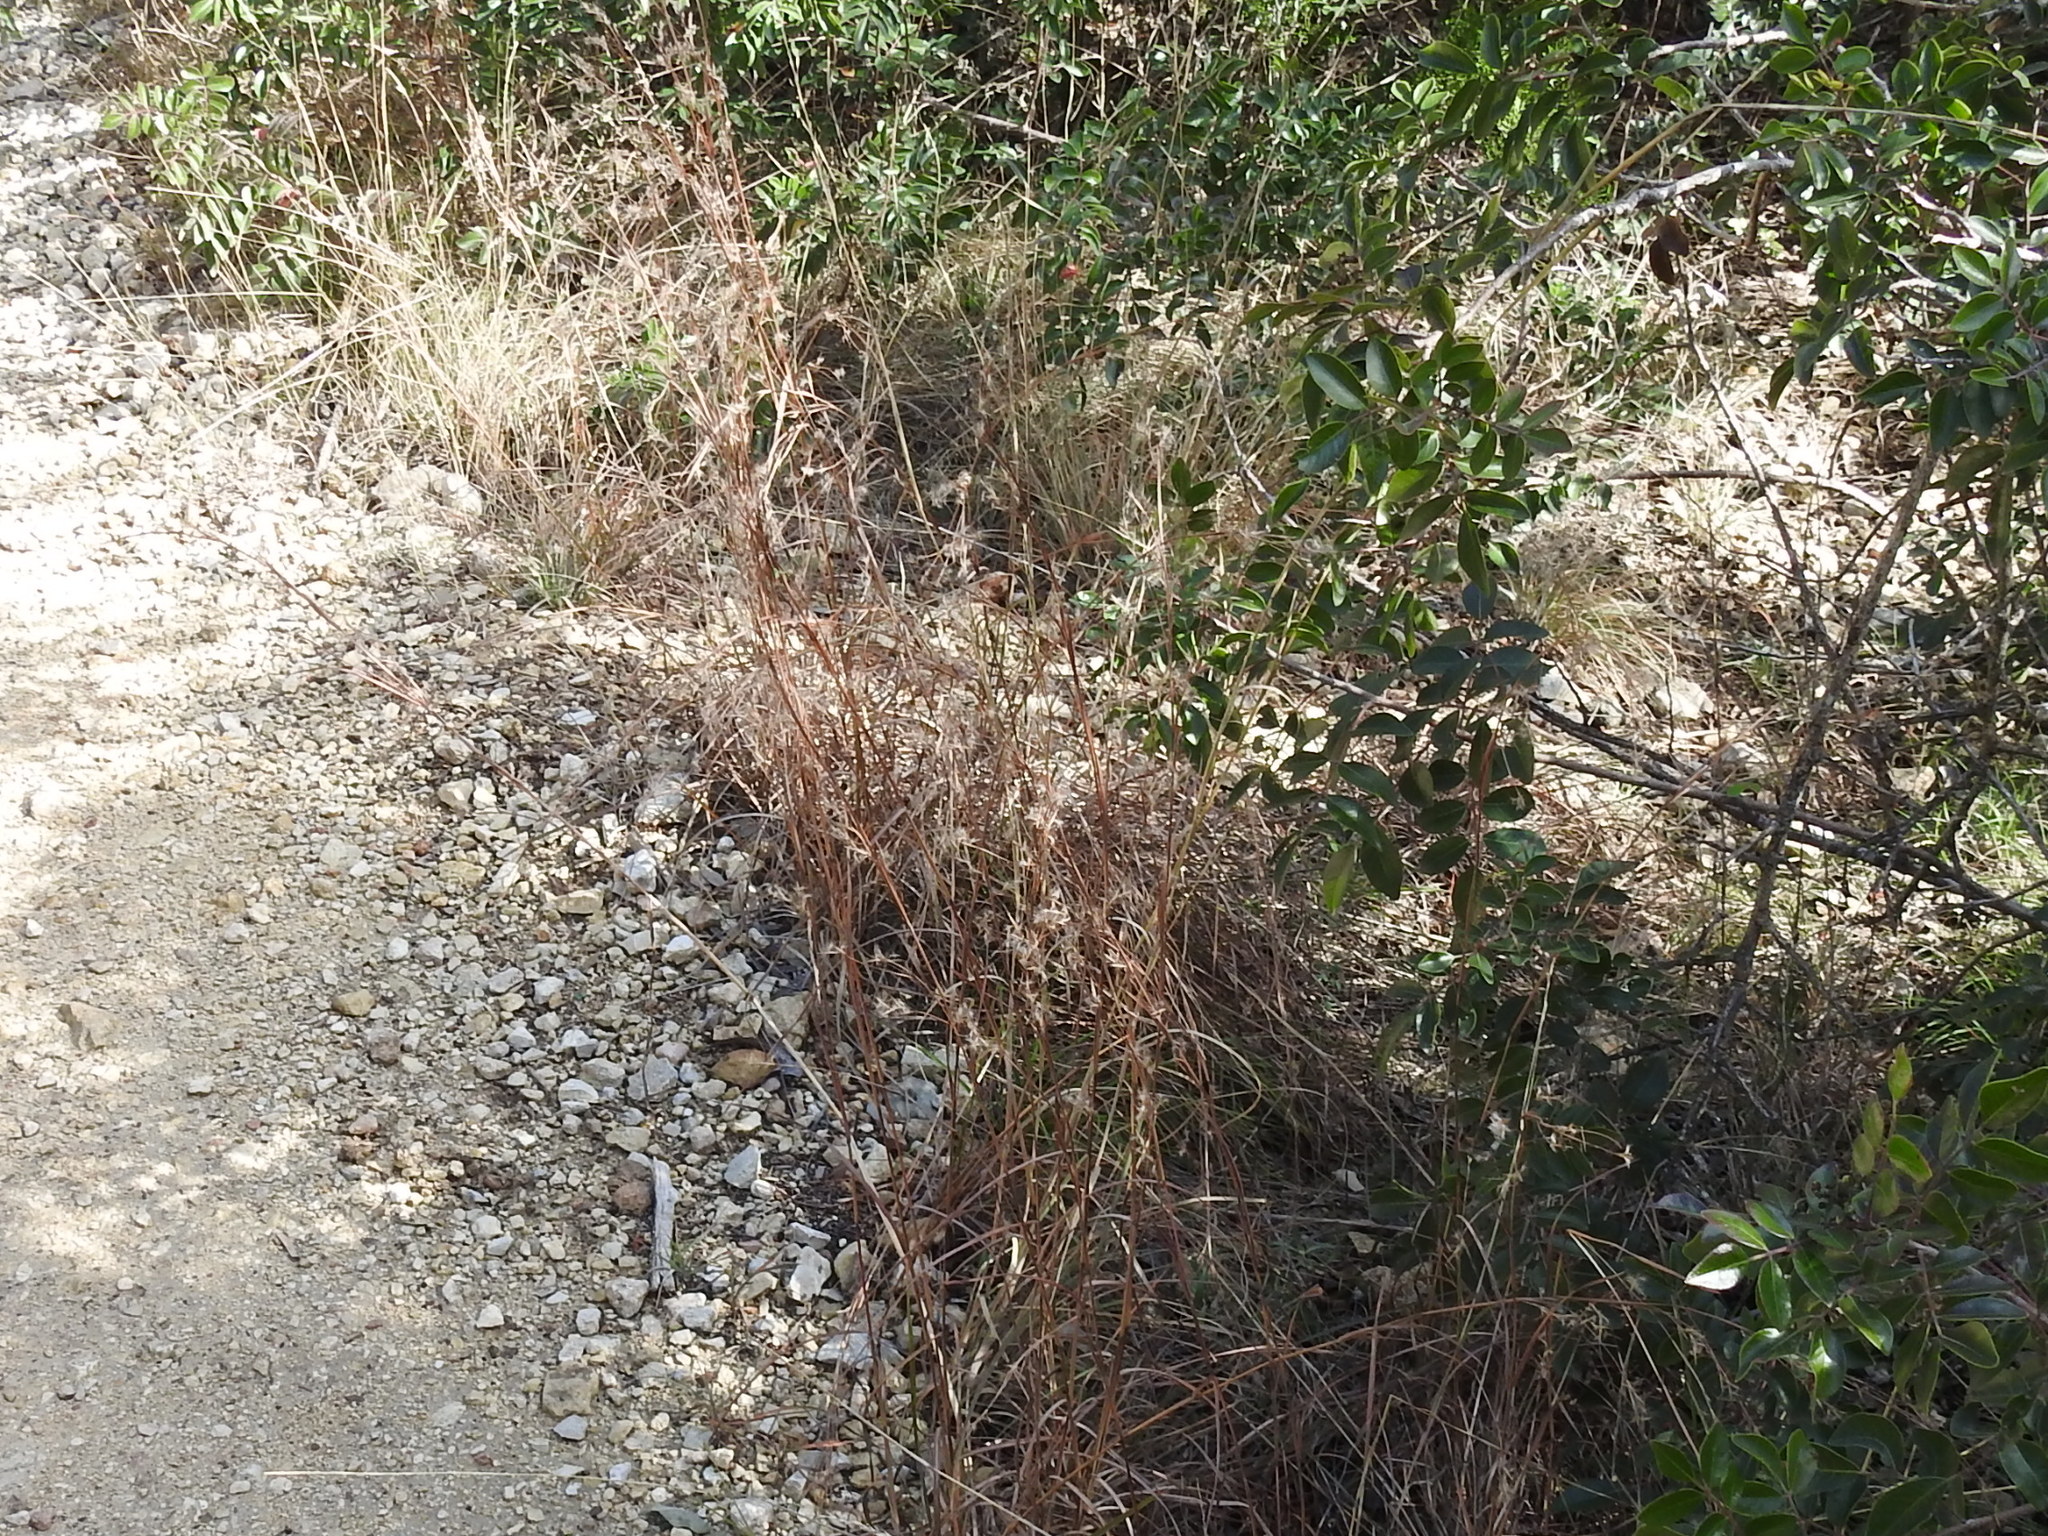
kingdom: Plantae
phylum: Tracheophyta
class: Liliopsida
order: Poales
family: Poaceae
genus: Schizachyrium
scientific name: Schizachyrium scoparium
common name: Little bluestem
